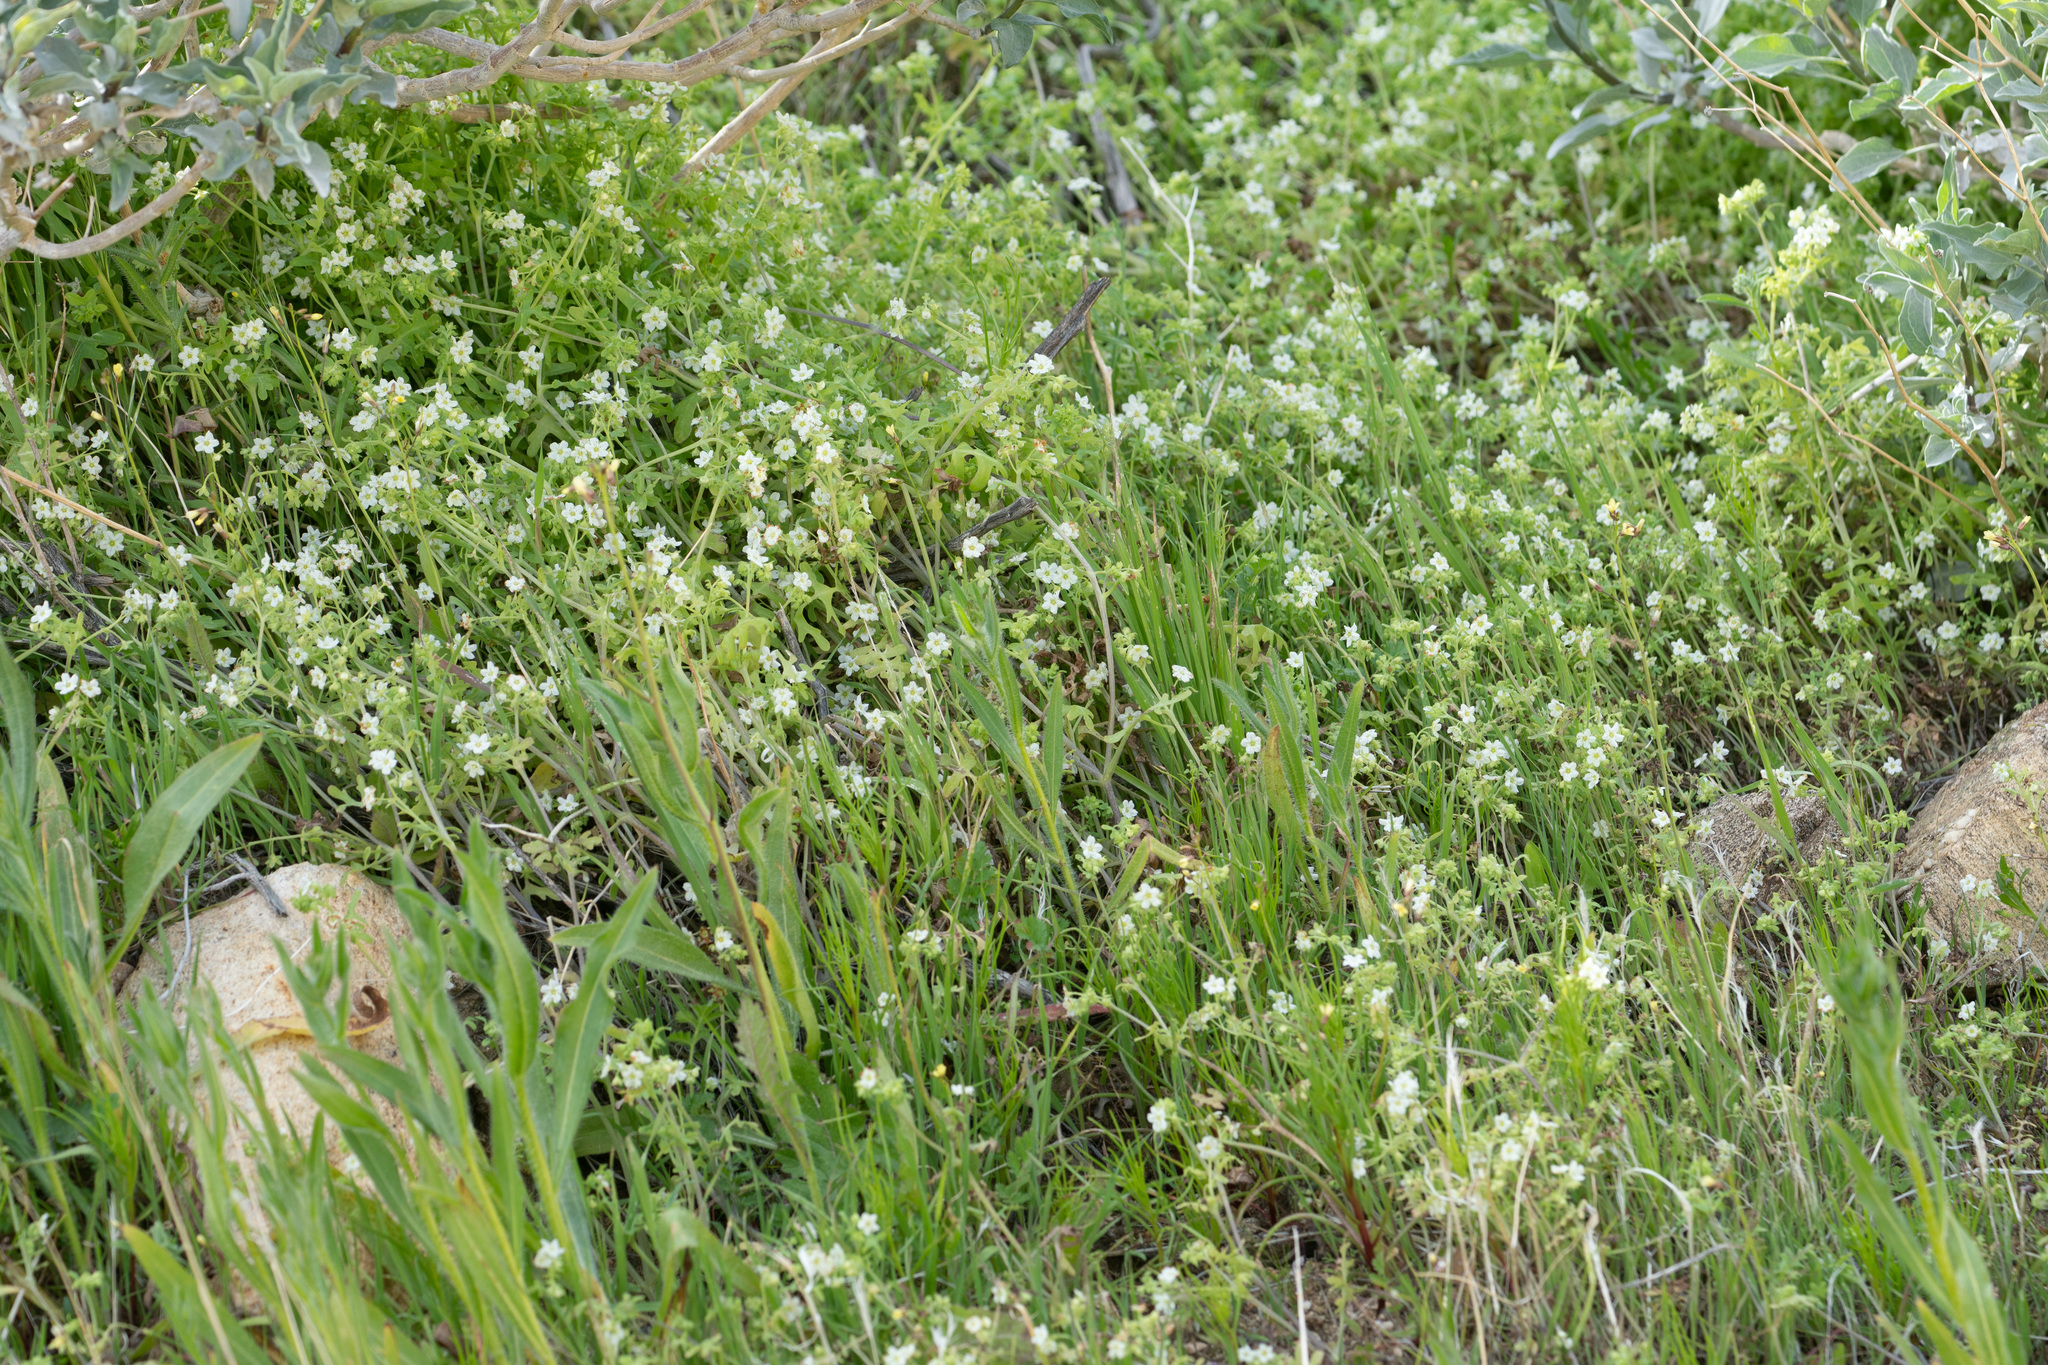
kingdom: Plantae
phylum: Tracheophyta
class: Magnoliopsida
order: Boraginales
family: Hydrophyllaceae
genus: Pholistoma
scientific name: Pholistoma membranaceum
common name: White fiesta-flower
